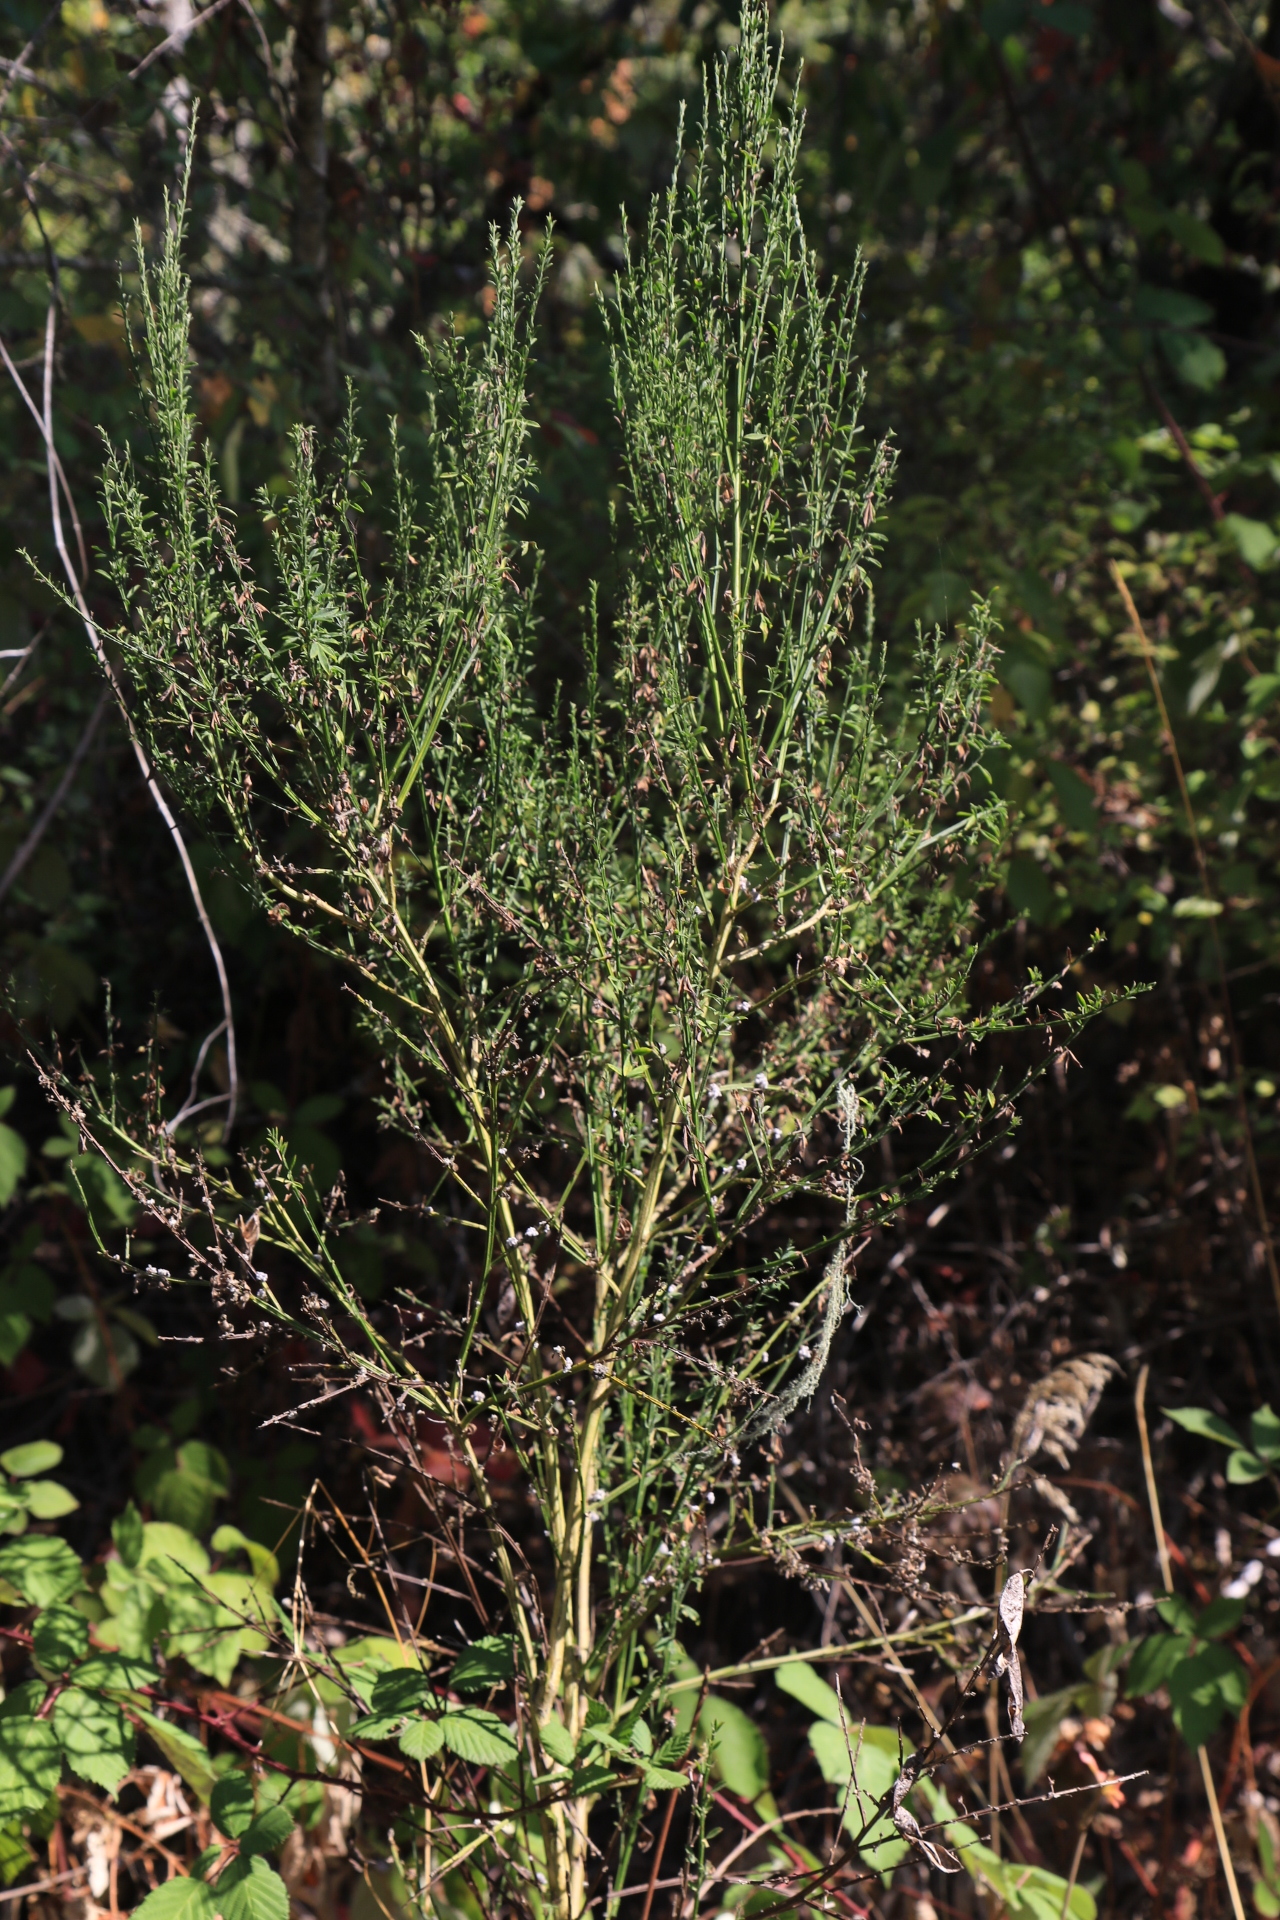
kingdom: Plantae
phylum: Tracheophyta
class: Magnoliopsida
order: Fabales
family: Fabaceae
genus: Cytisus
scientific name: Cytisus scoparius
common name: Scotch broom
